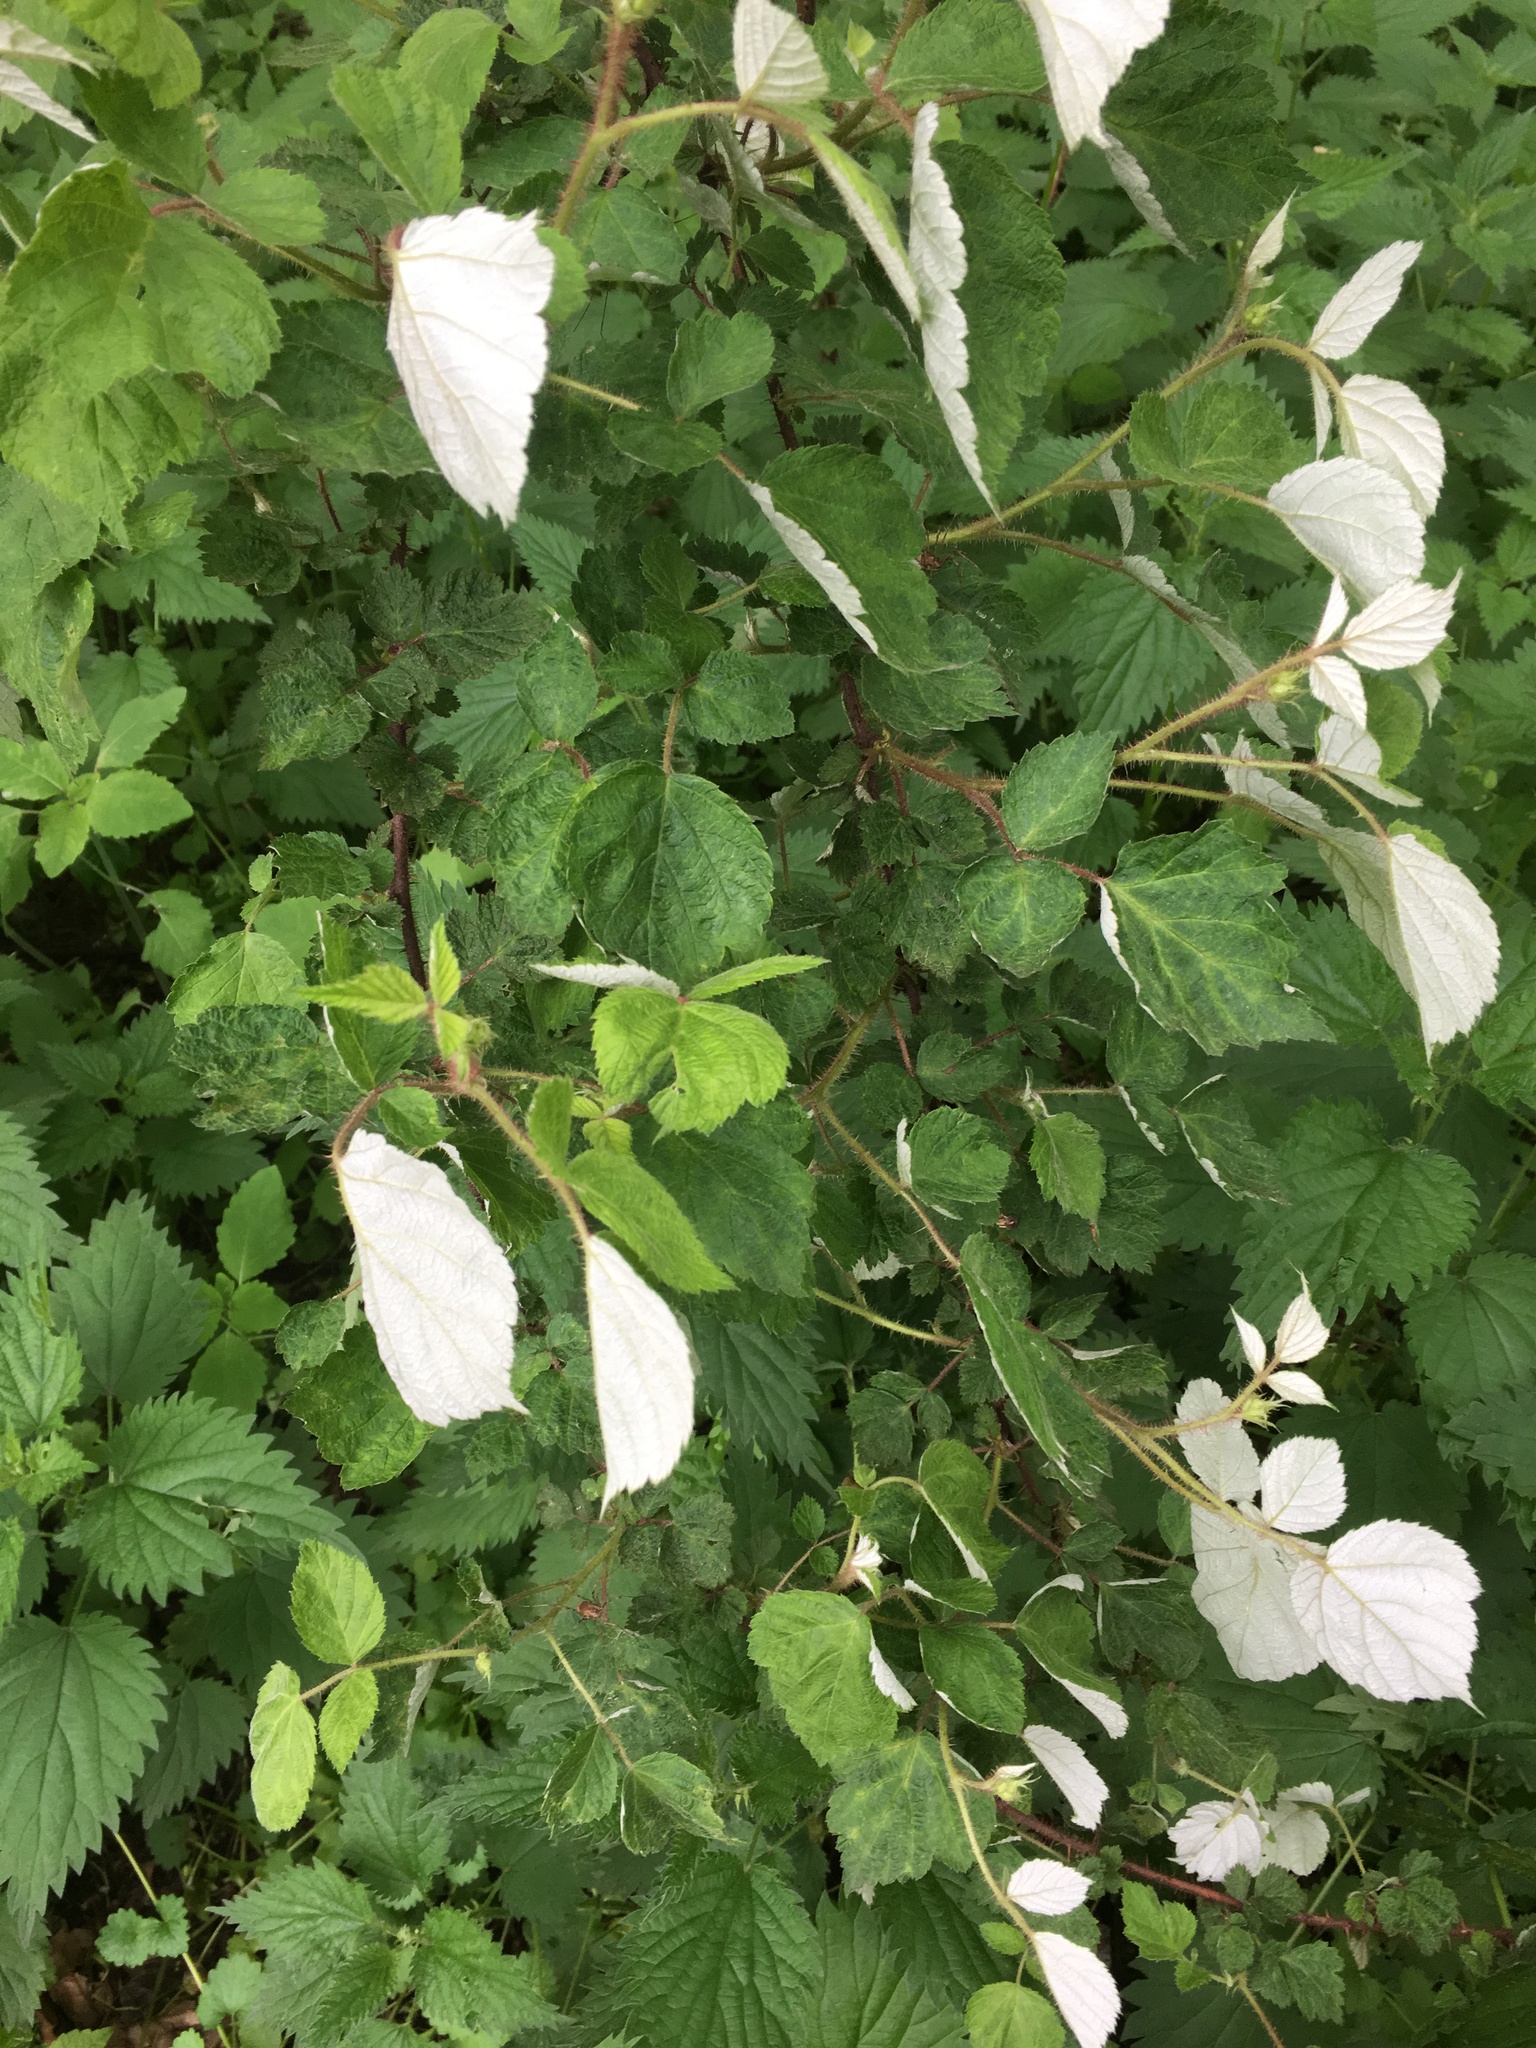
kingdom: Plantae
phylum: Tracheophyta
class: Magnoliopsida
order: Rosales
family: Rosaceae
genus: Rubus
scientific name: Rubus phoenicolasius
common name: Japanese wineberry
